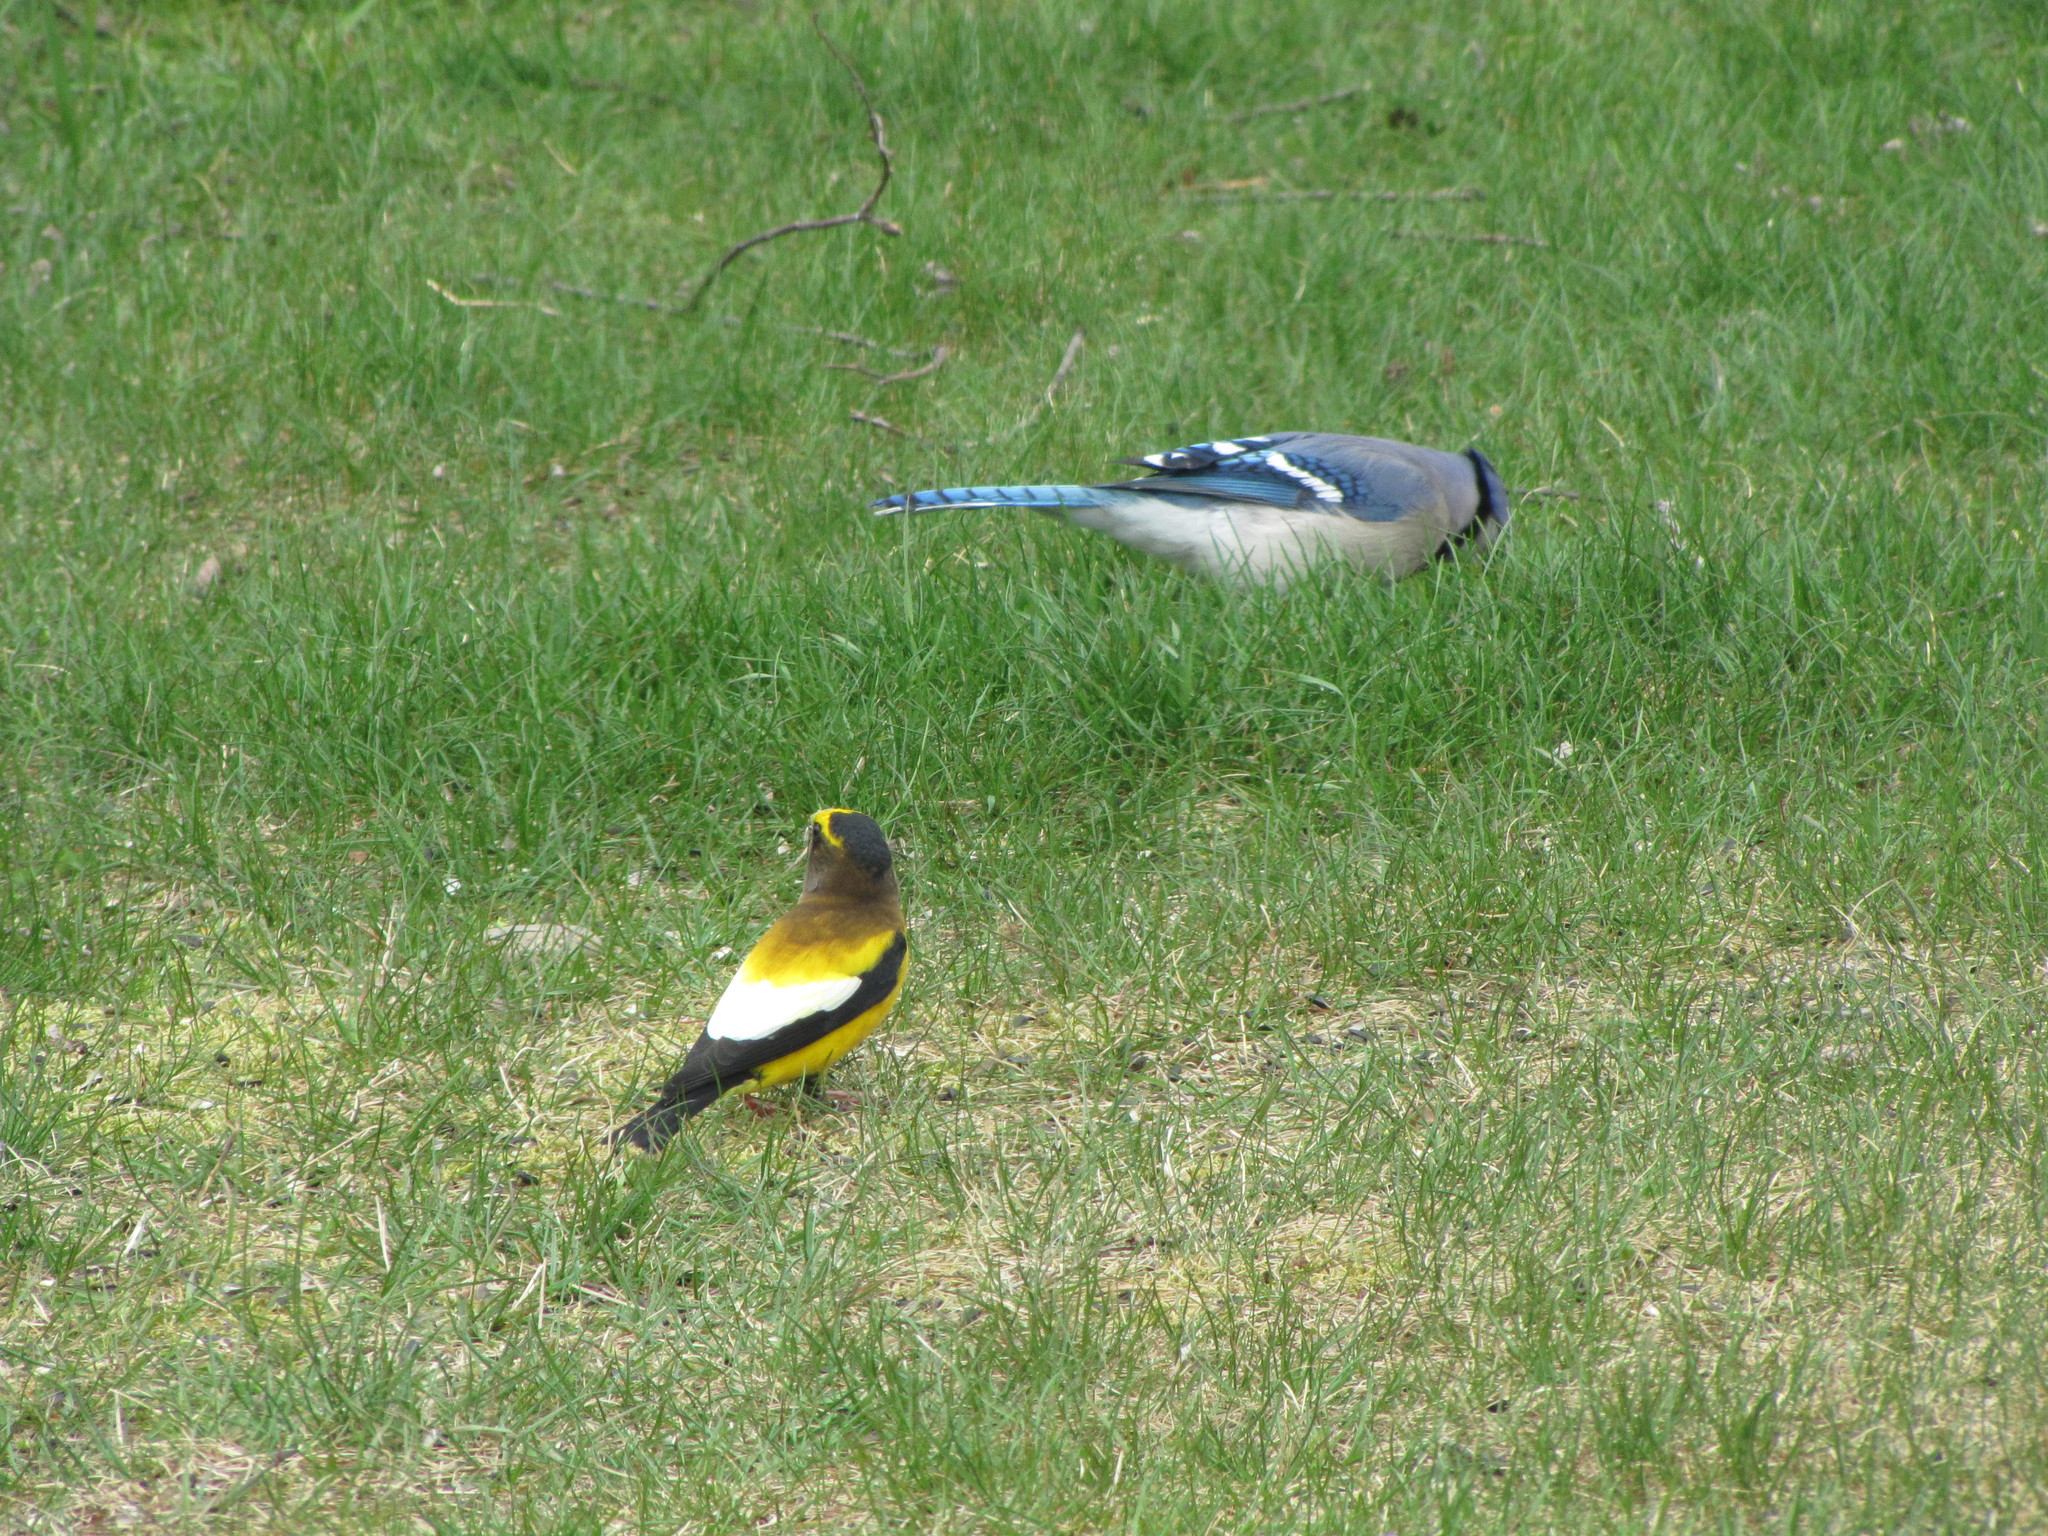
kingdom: Animalia
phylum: Chordata
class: Aves
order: Passeriformes
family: Fringillidae
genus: Hesperiphona
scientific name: Hesperiphona vespertina
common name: Evening grosbeak
